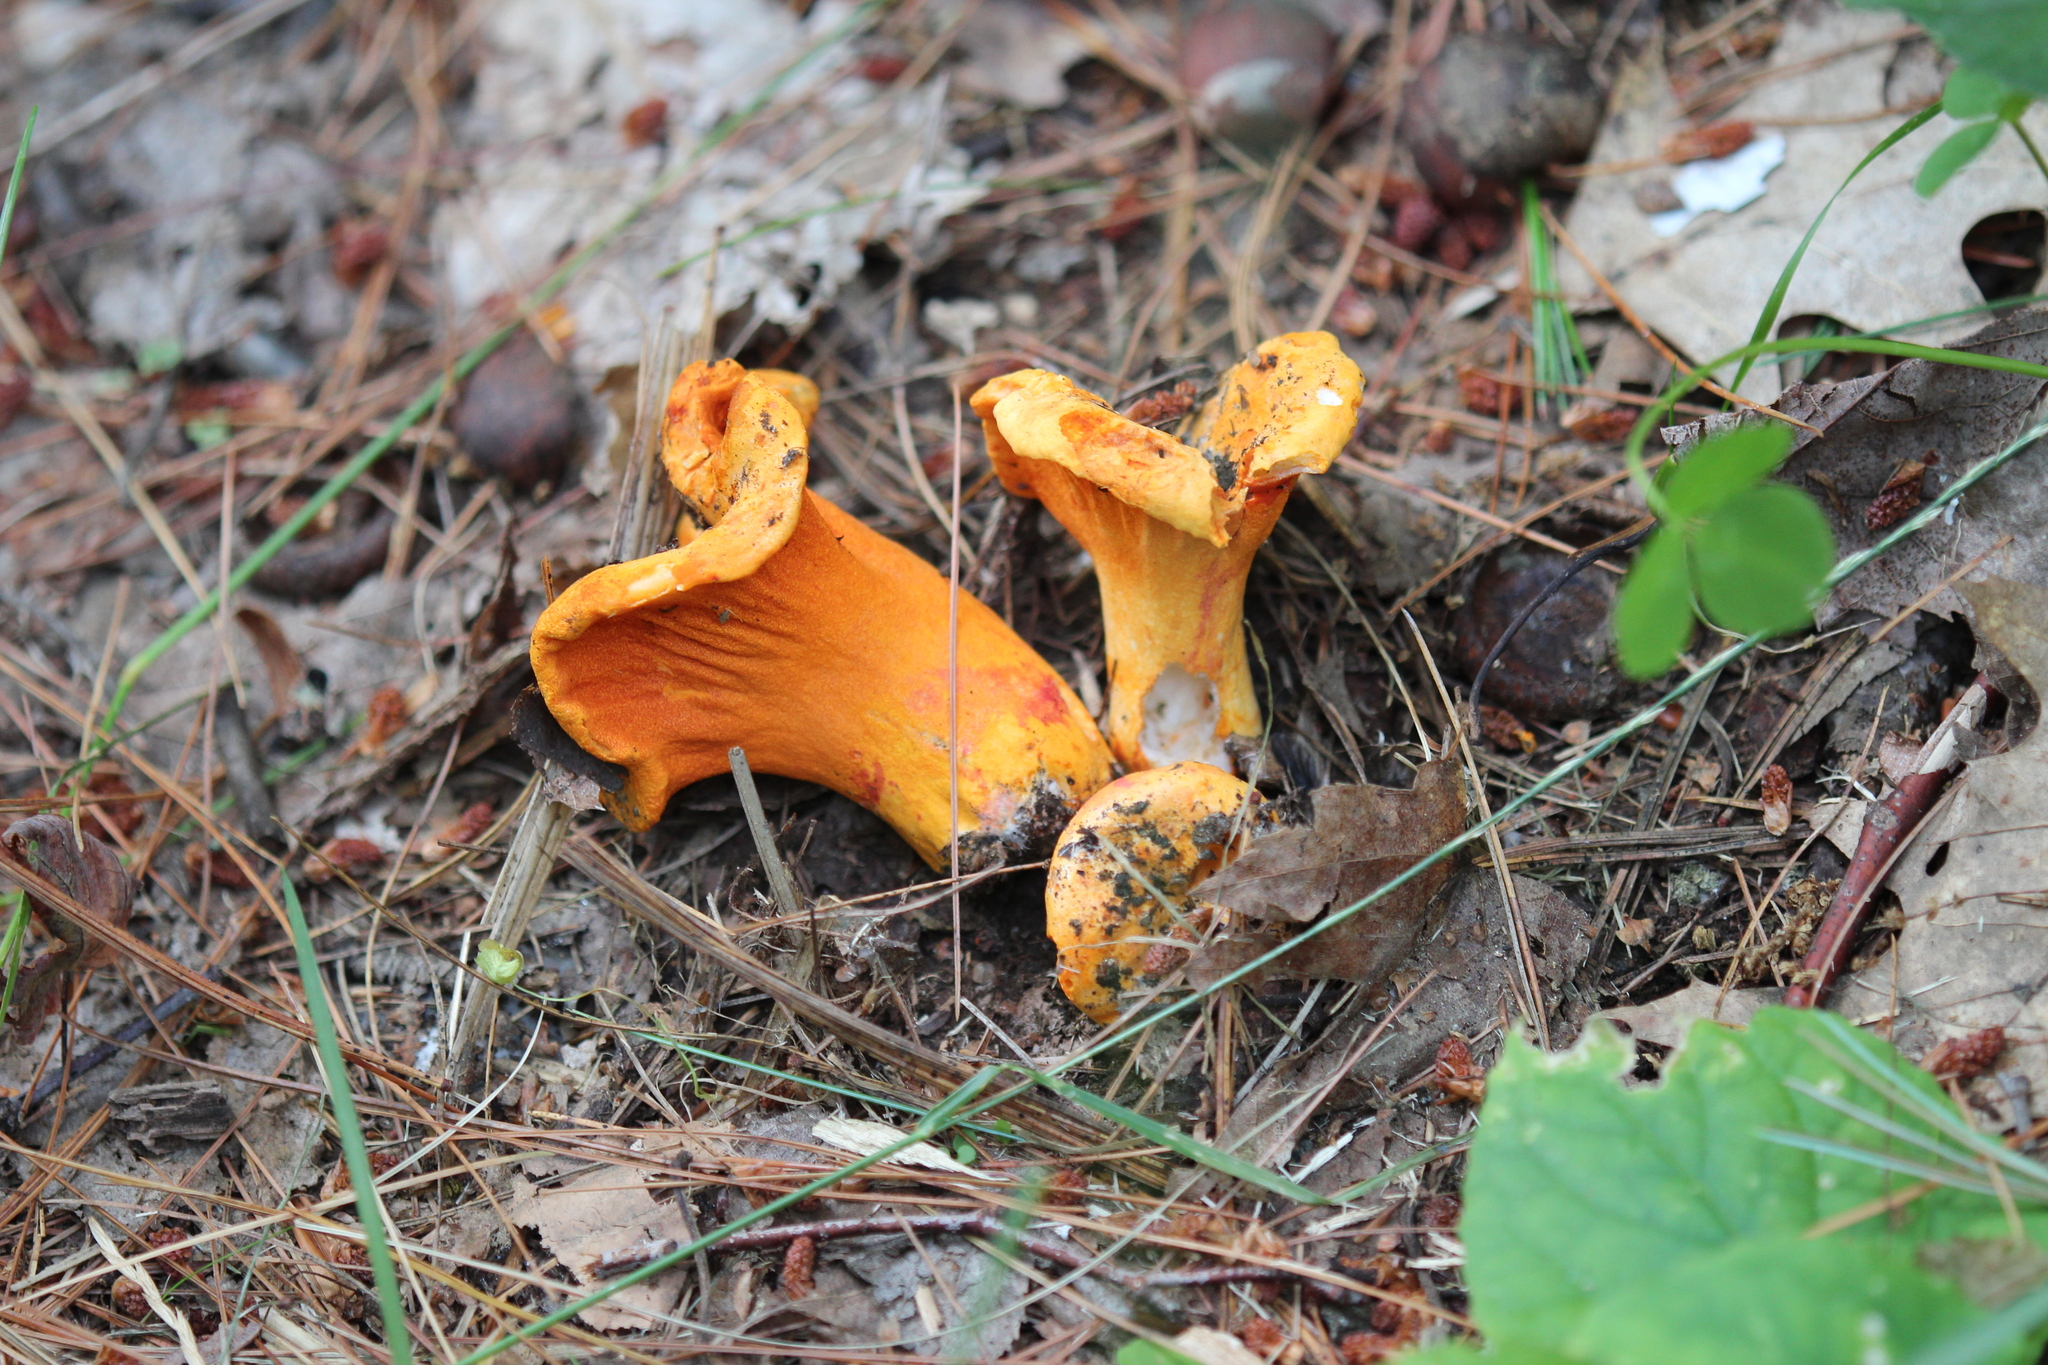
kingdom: Fungi
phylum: Ascomycota
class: Sordariomycetes
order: Hypocreales
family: Hypocreaceae
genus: Hypomyces
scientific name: Hypomyces lactifluorum
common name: Lobster mushroom
